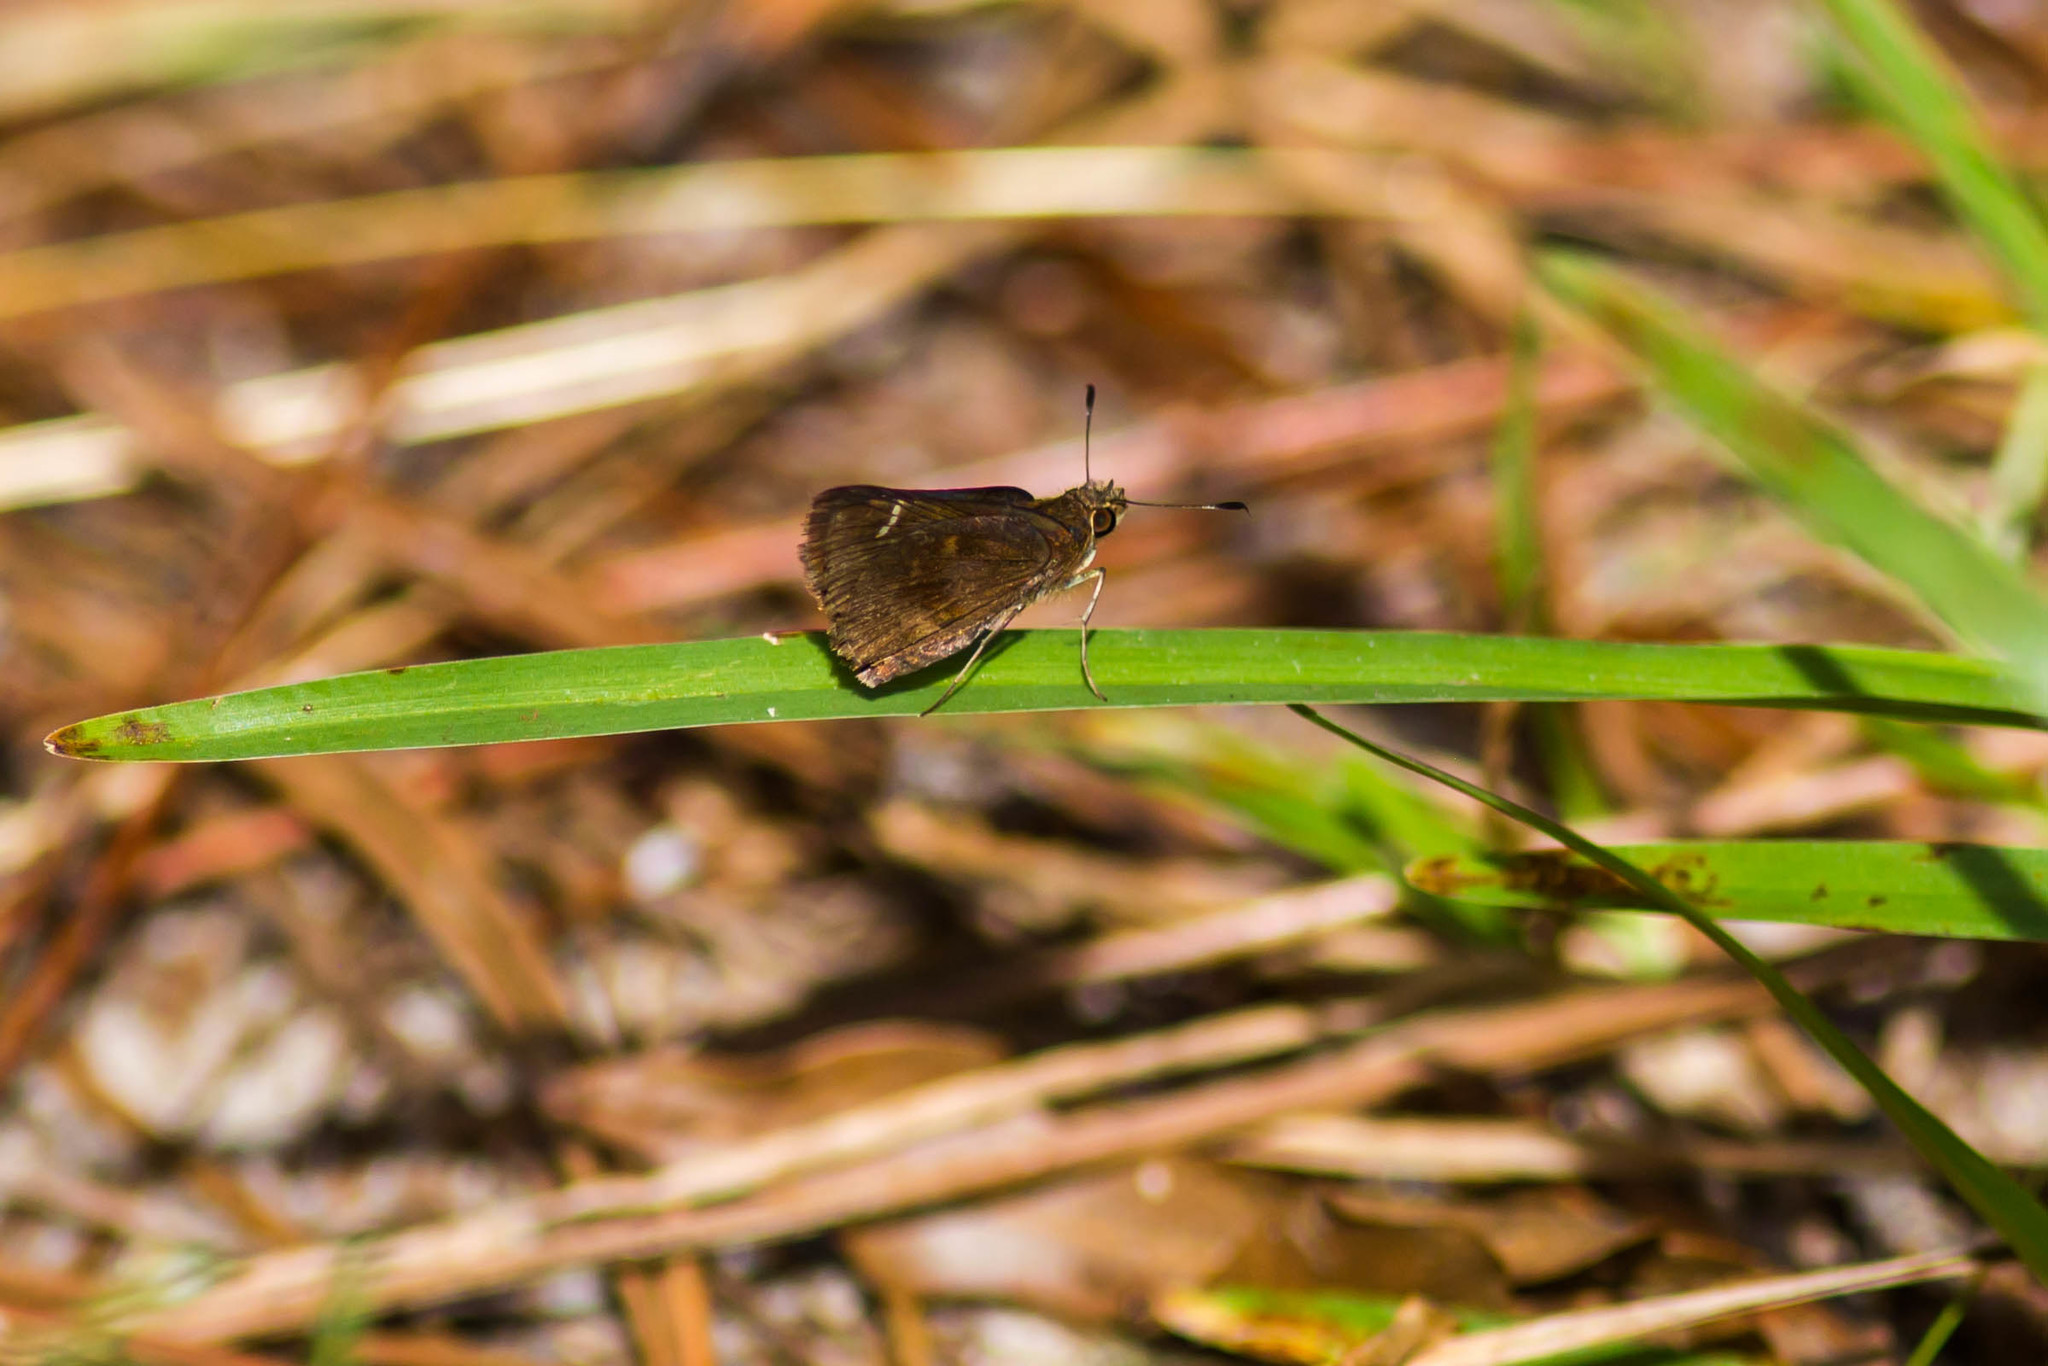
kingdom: Animalia
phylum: Arthropoda
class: Insecta
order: Lepidoptera
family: Hesperiidae
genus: Lerema
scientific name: Lerema accius
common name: Clouded skipper
